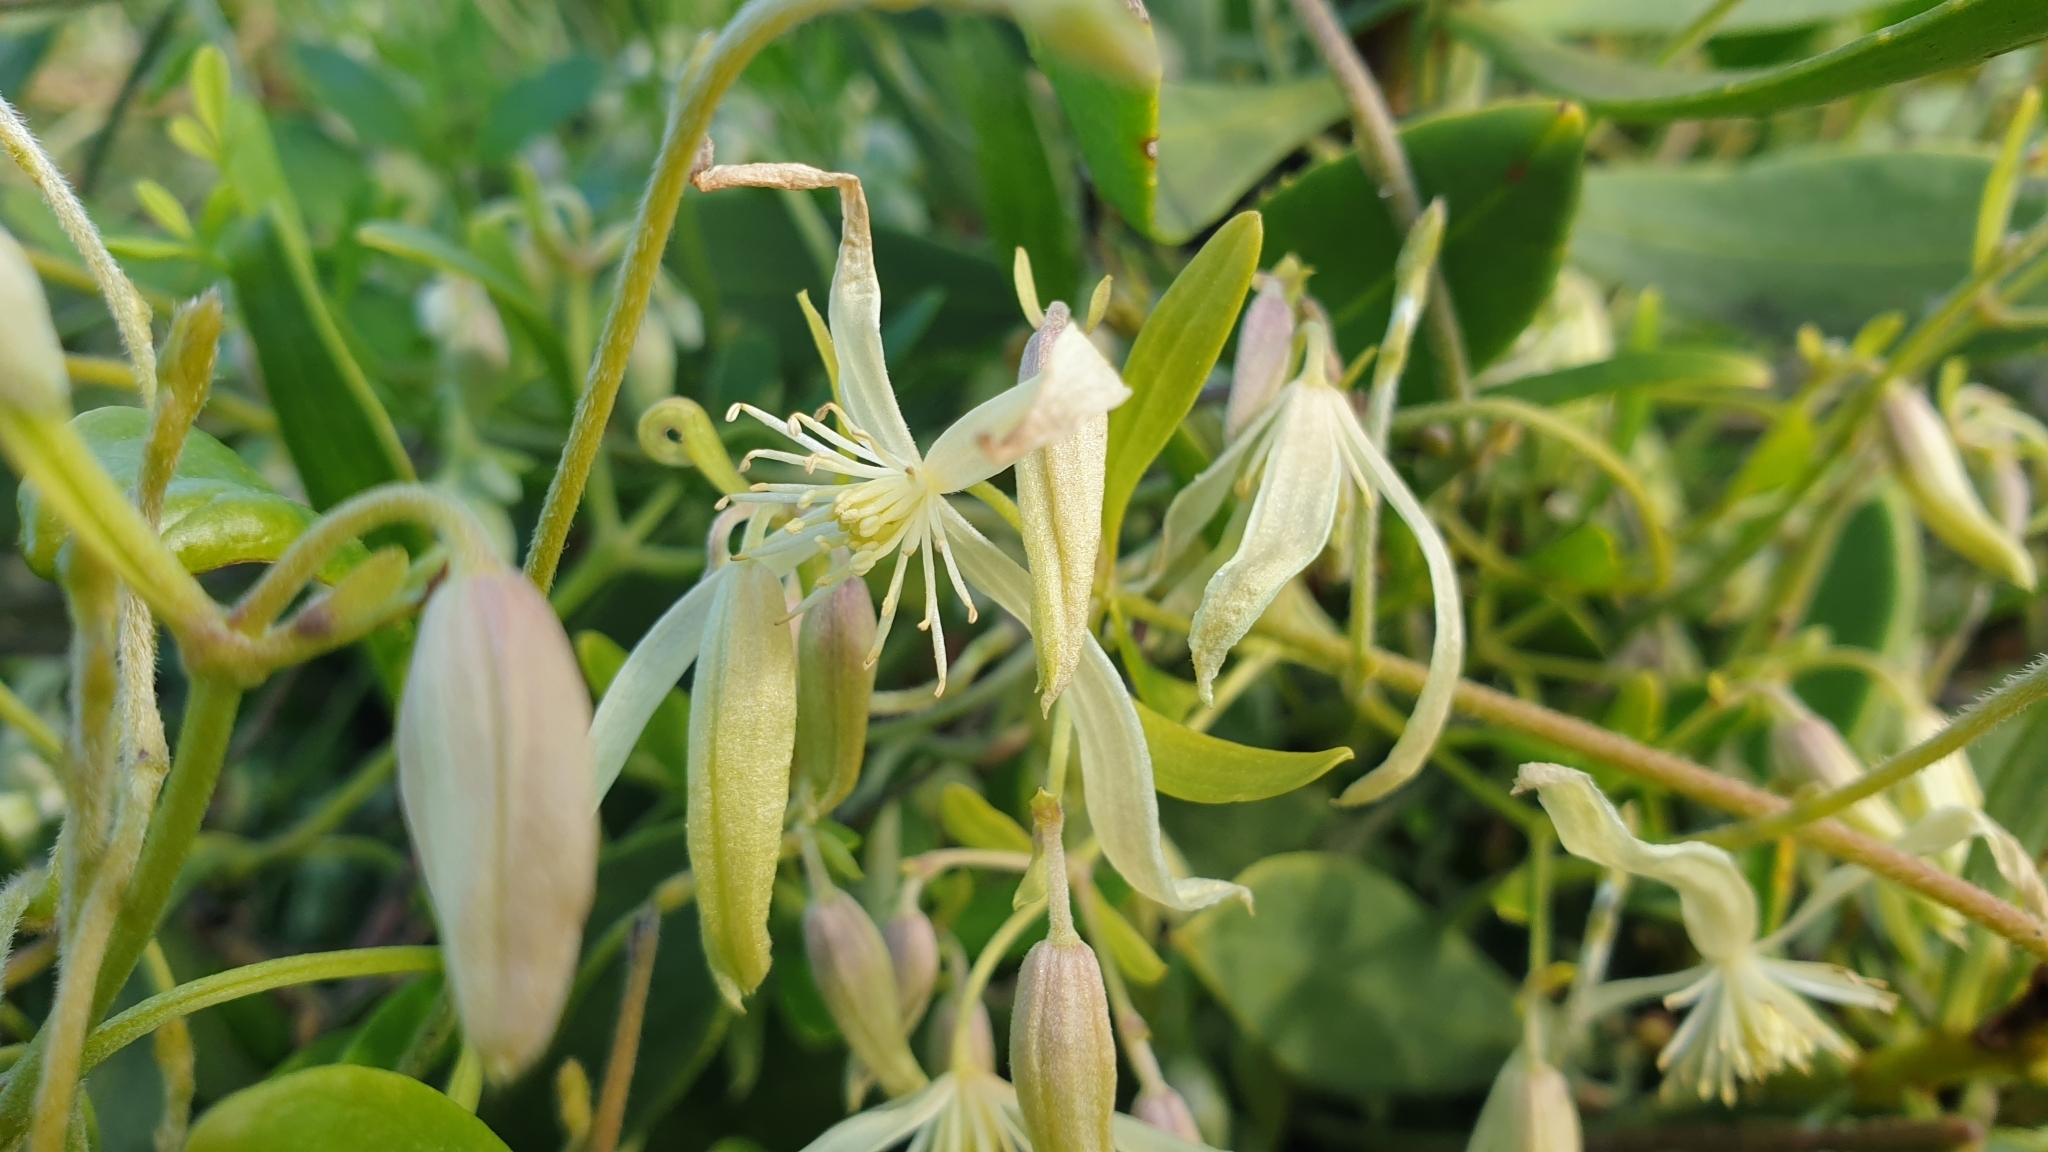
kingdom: Plantae
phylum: Tracheophyta
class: Magnoliopsida
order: Ranunculales
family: Ranunculaceae
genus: Clematis
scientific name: Clematis microphylla
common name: Headachevine
